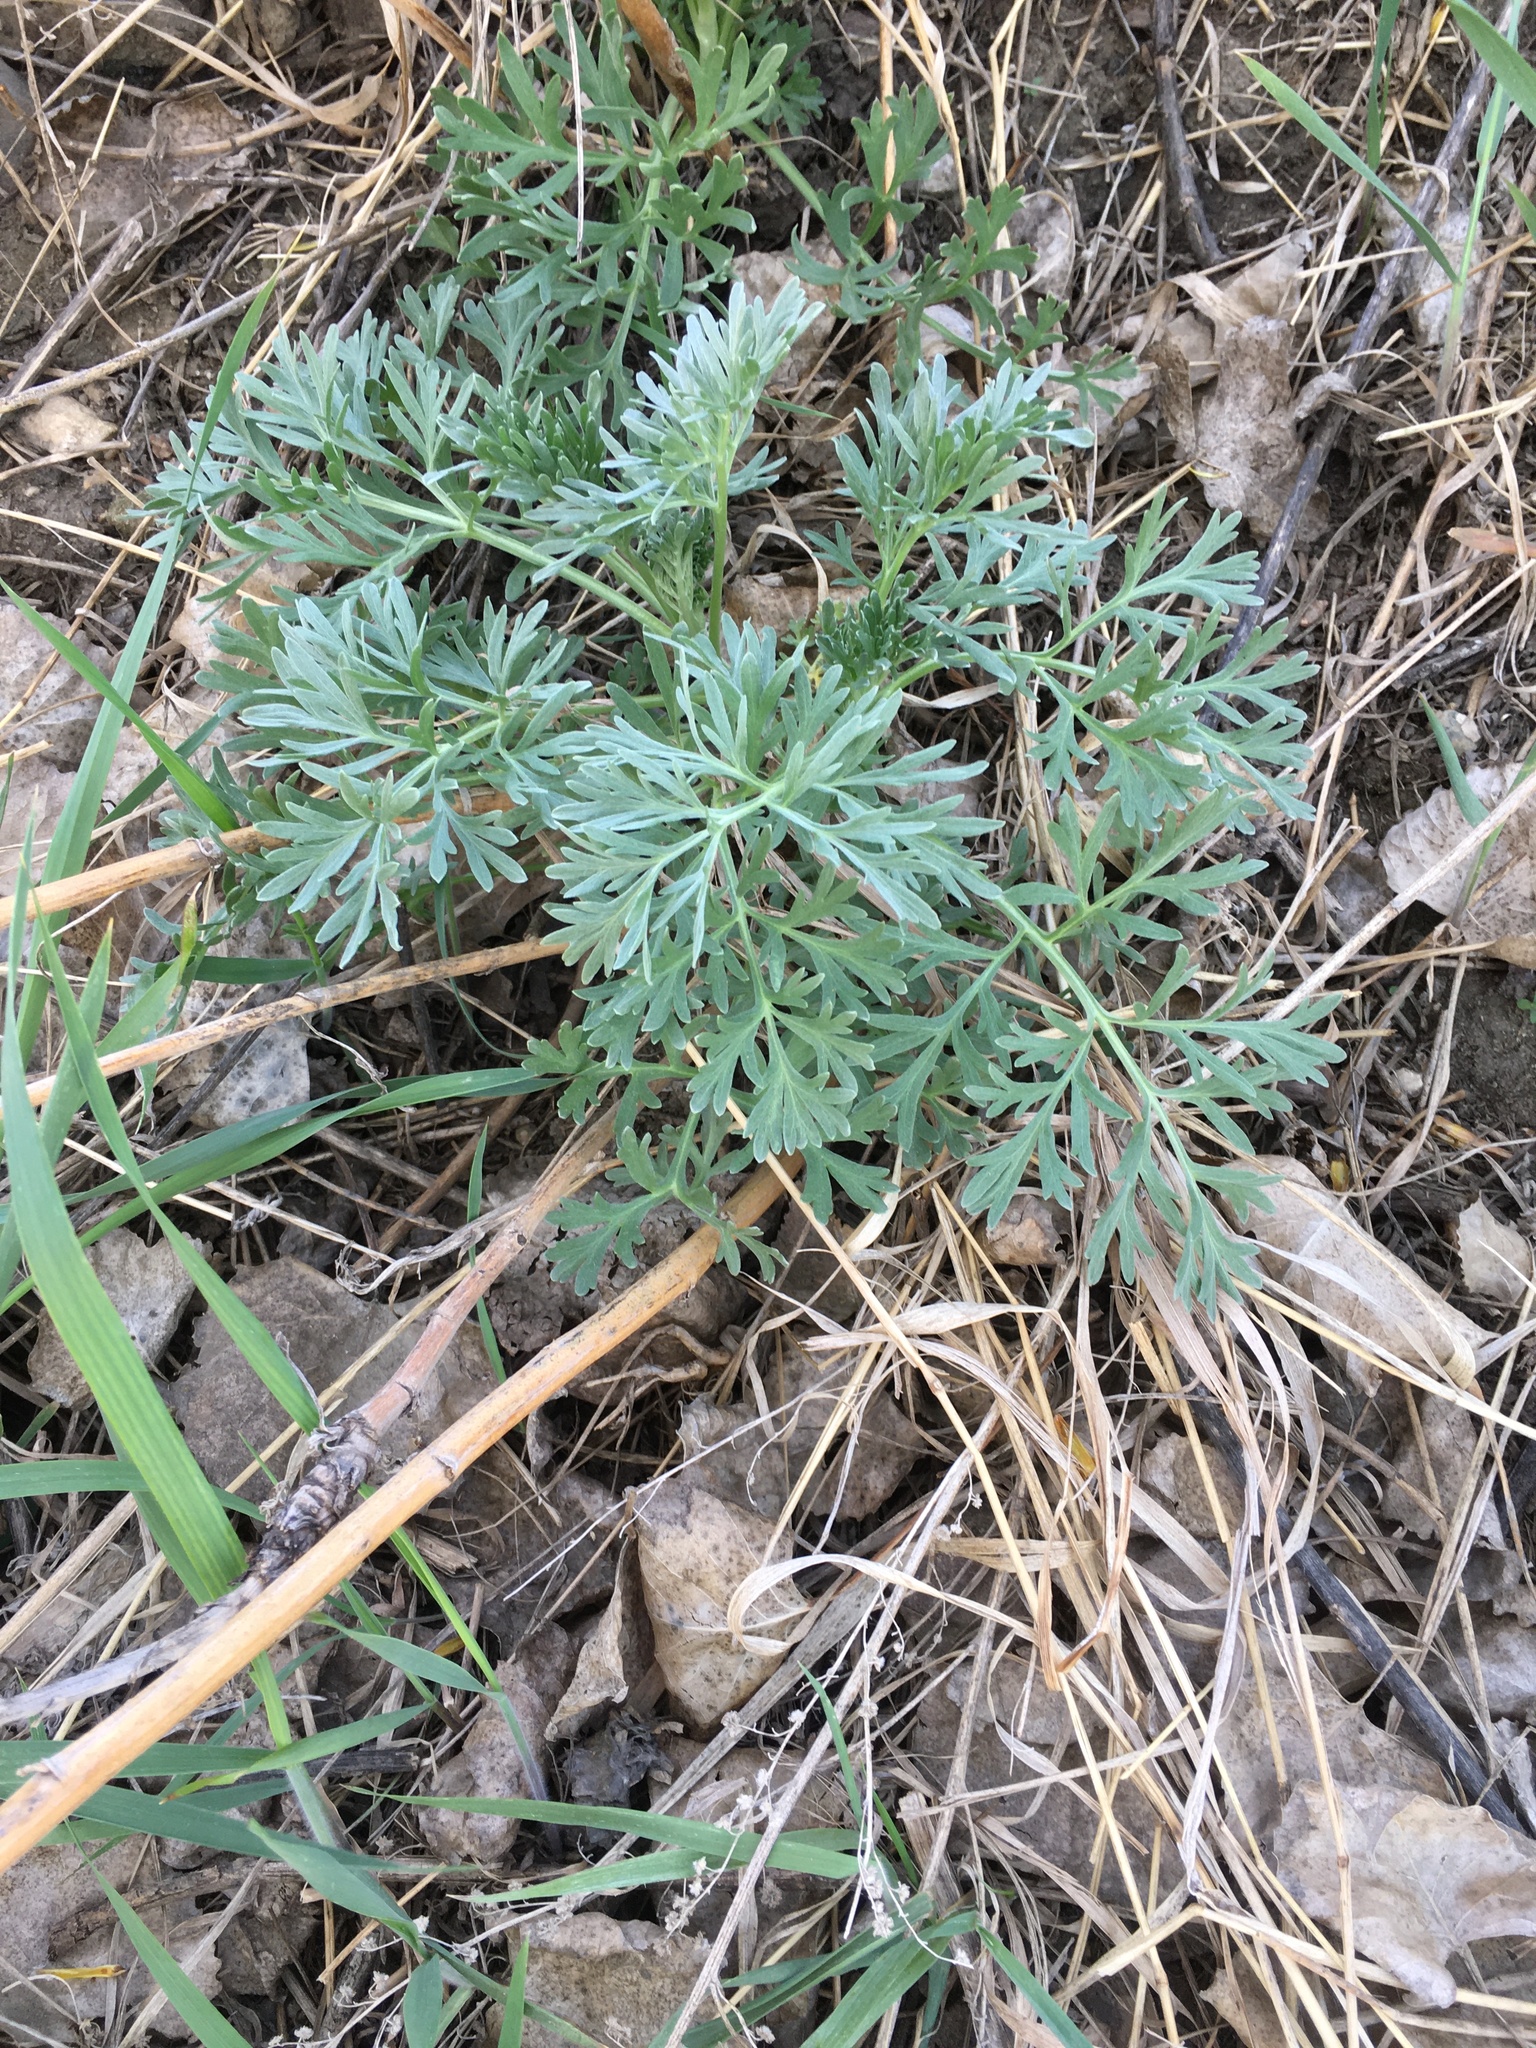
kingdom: Plantae
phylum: Tracheophyta
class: Magnoliopsida
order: Asterales
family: Asteraceae
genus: Artemisia
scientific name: Artemisia absinthium
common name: Wormwood
